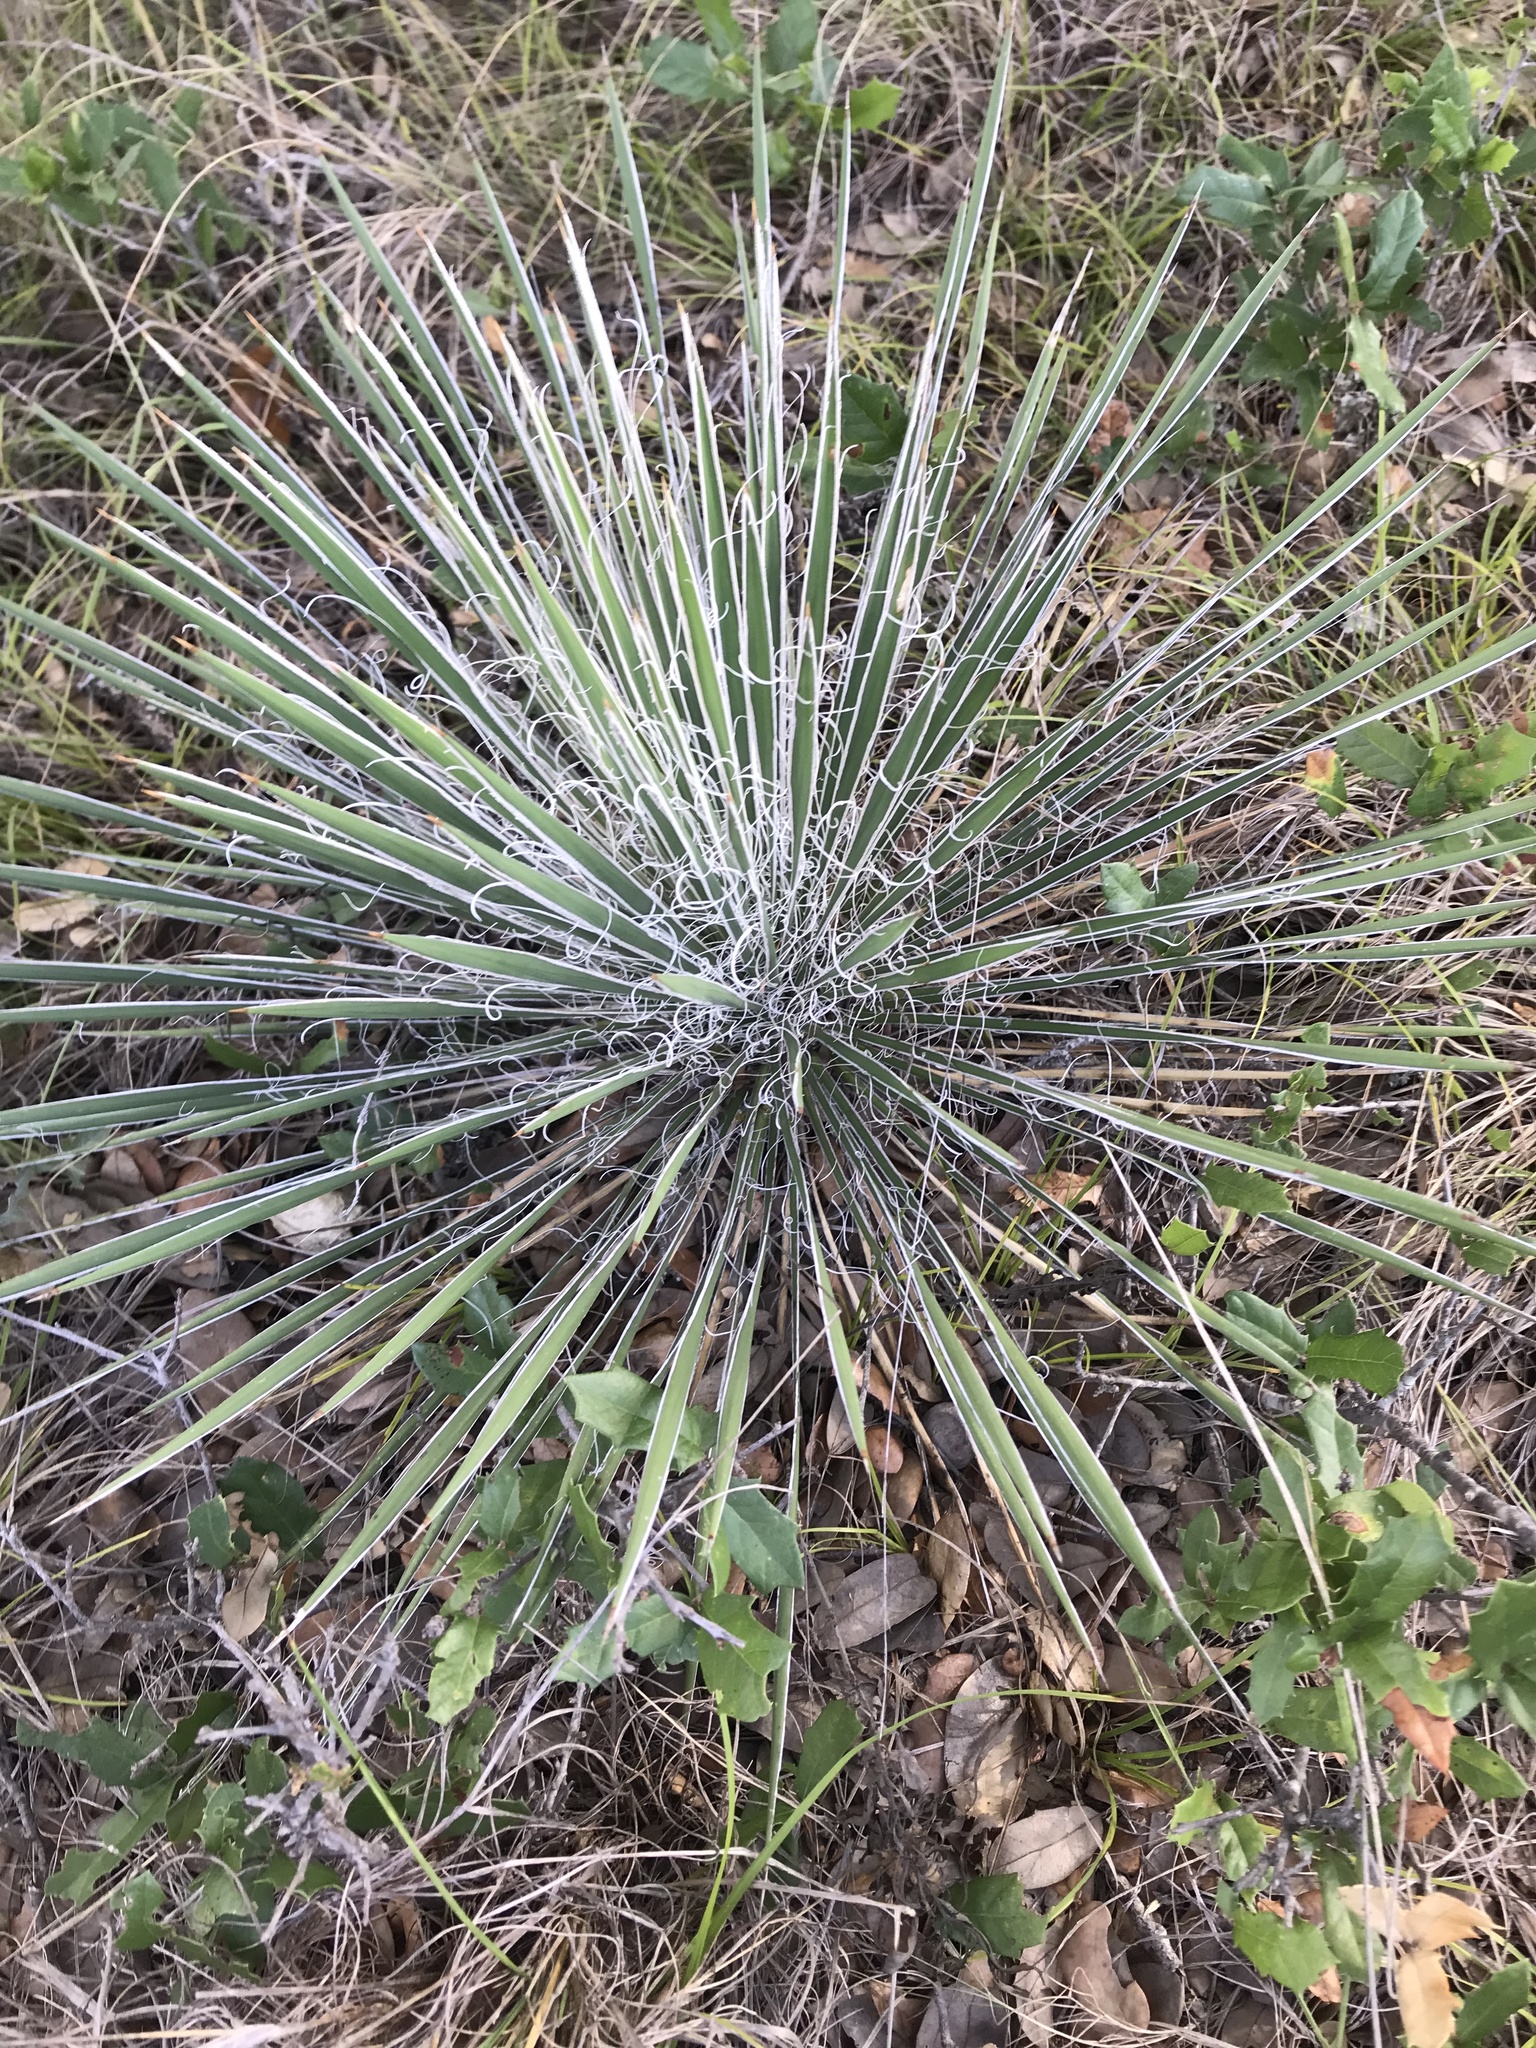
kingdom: Plantae
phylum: Tracheophyta
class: Liliopsida
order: Asparagales
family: Asparagaceae
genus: Yucca
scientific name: Yucca constricta
